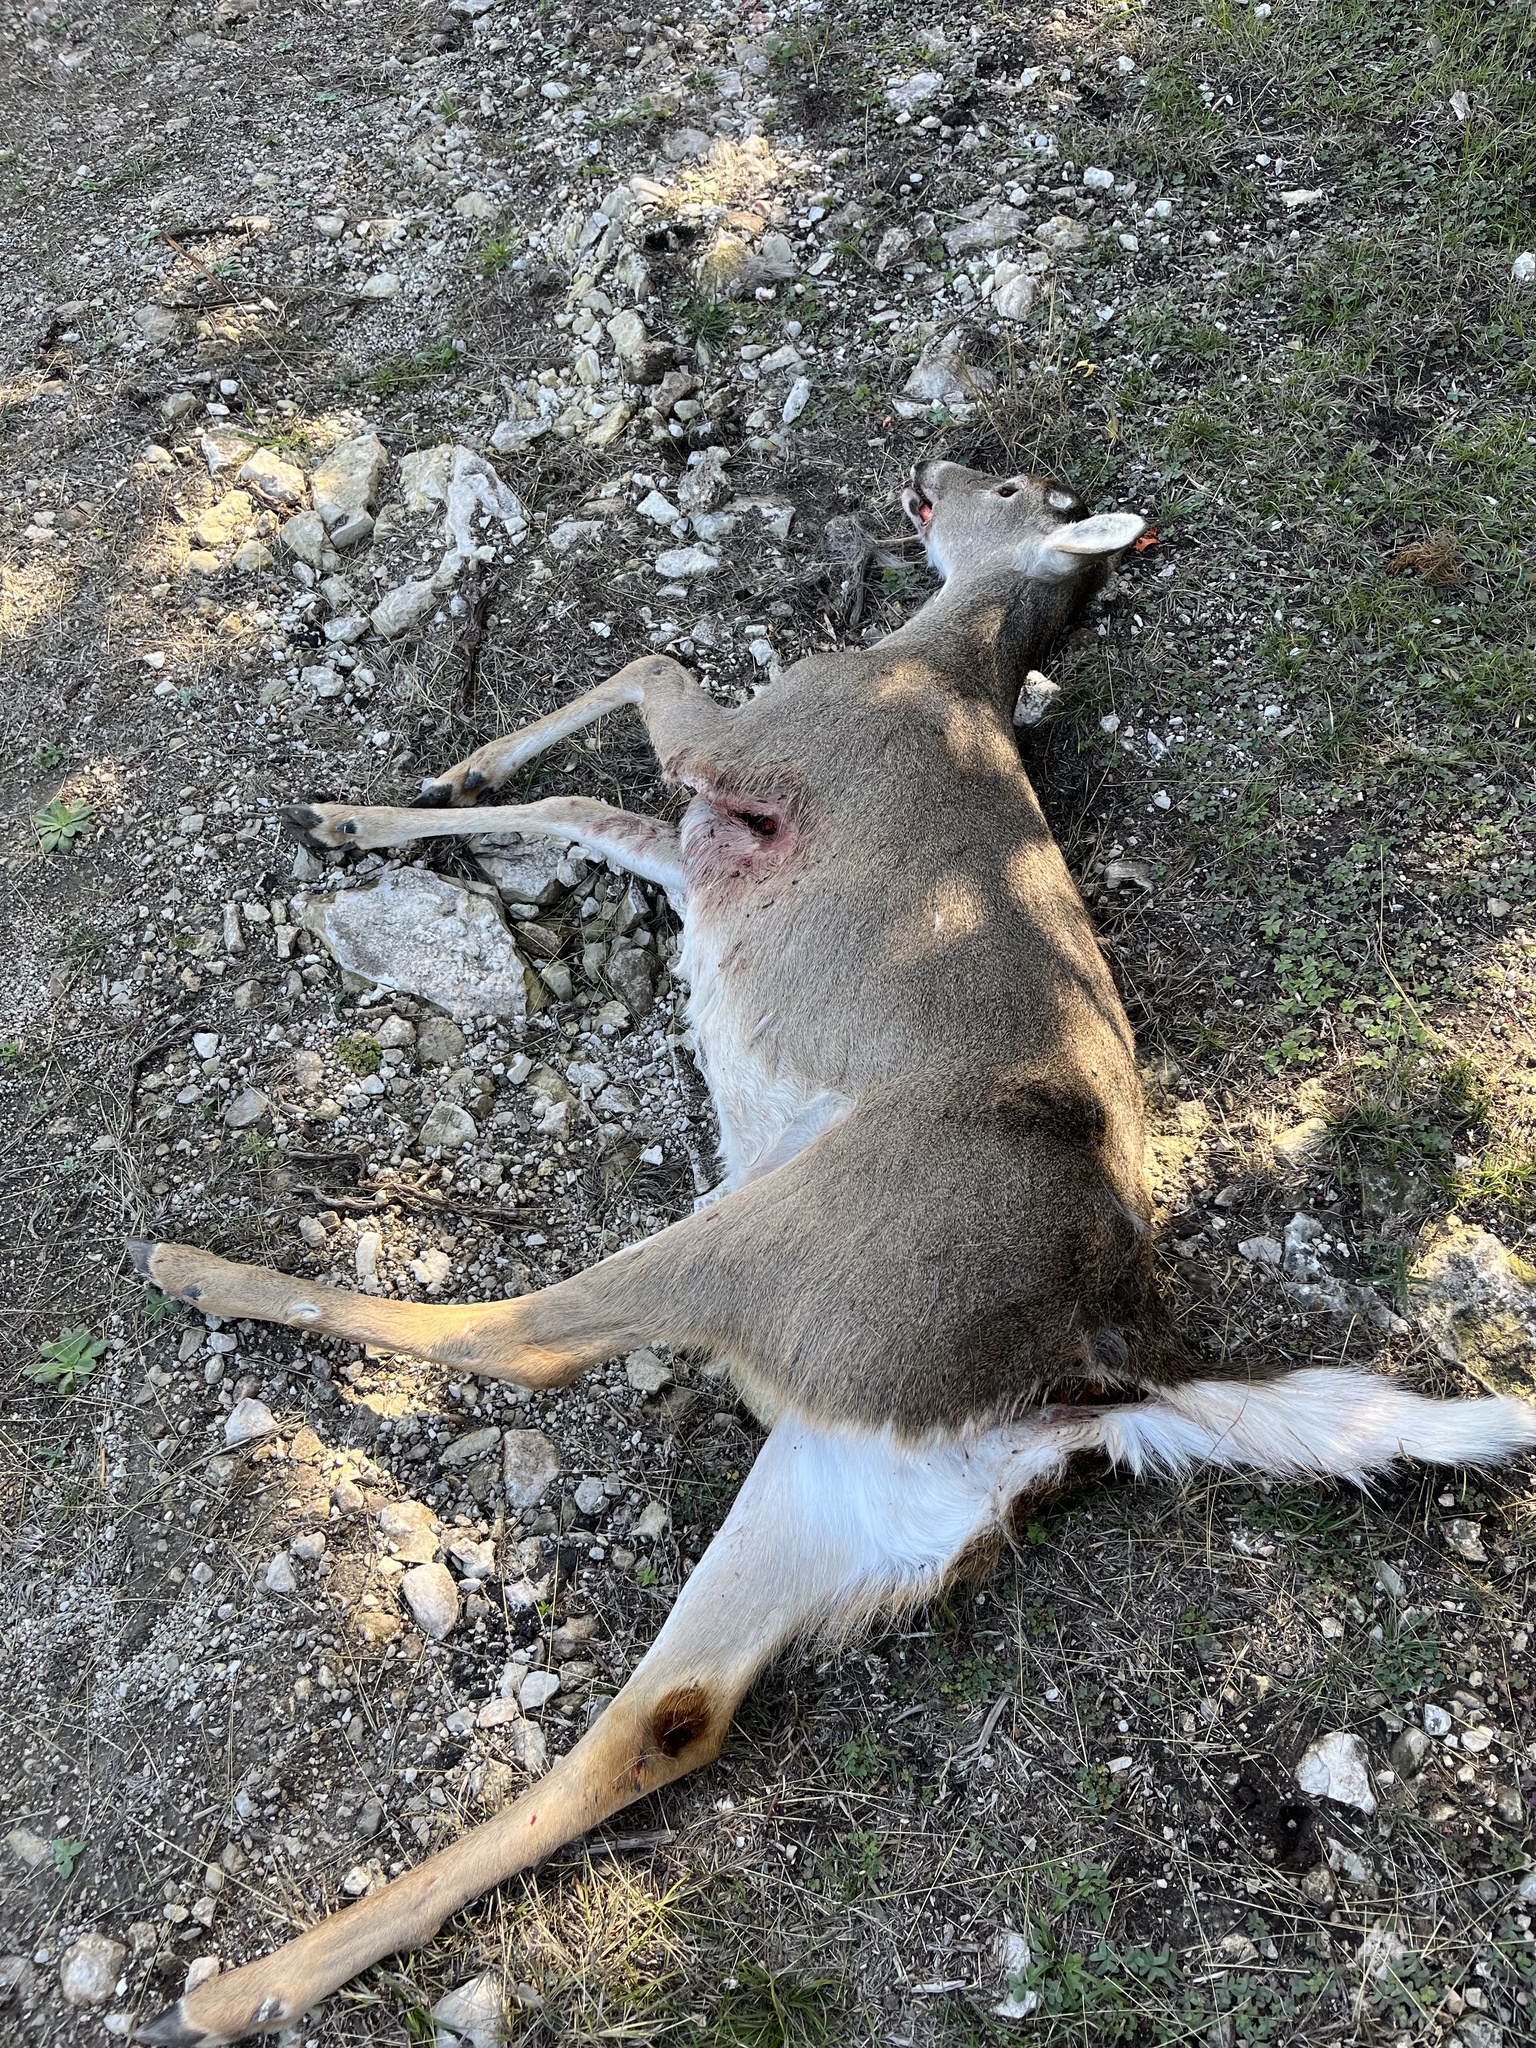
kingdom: Animalia
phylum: Chordata
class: Mammalia
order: Artiodactyla
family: Cervidae
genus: Odocoileus
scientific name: Odocoileus virginianus
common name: White-tailed deer
